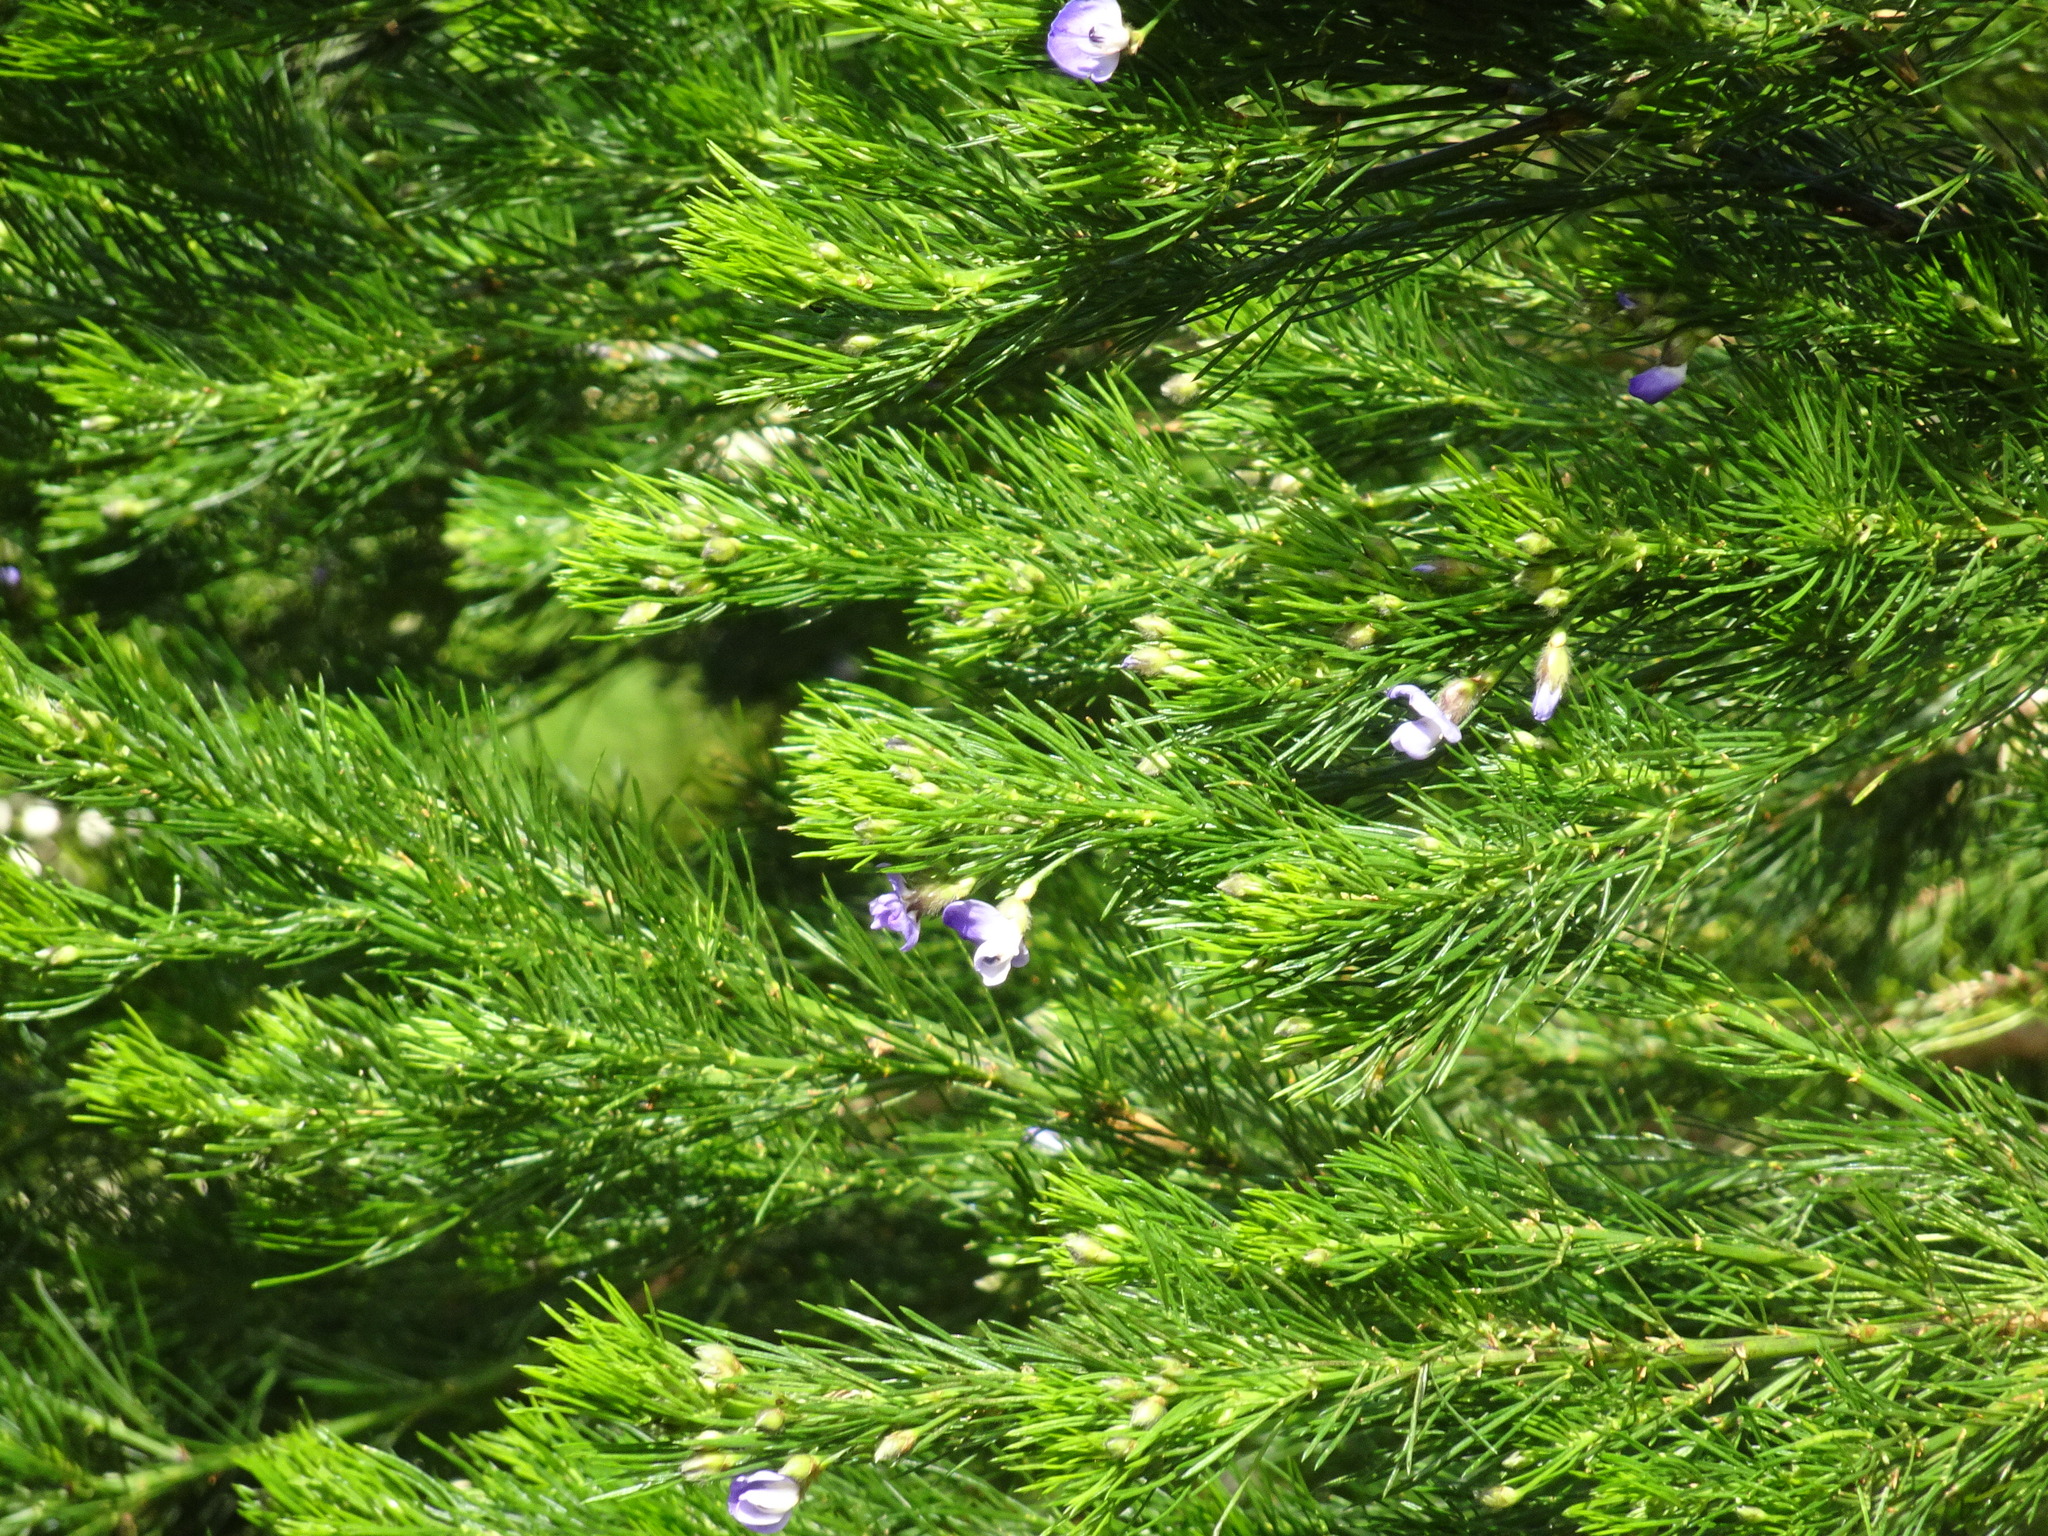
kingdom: Plantae
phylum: Tracheophyta
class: Magnoliopsida
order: Fabales
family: Fabaceae
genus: Psoralea
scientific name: Psoralea pinnata
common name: African scurfpea
